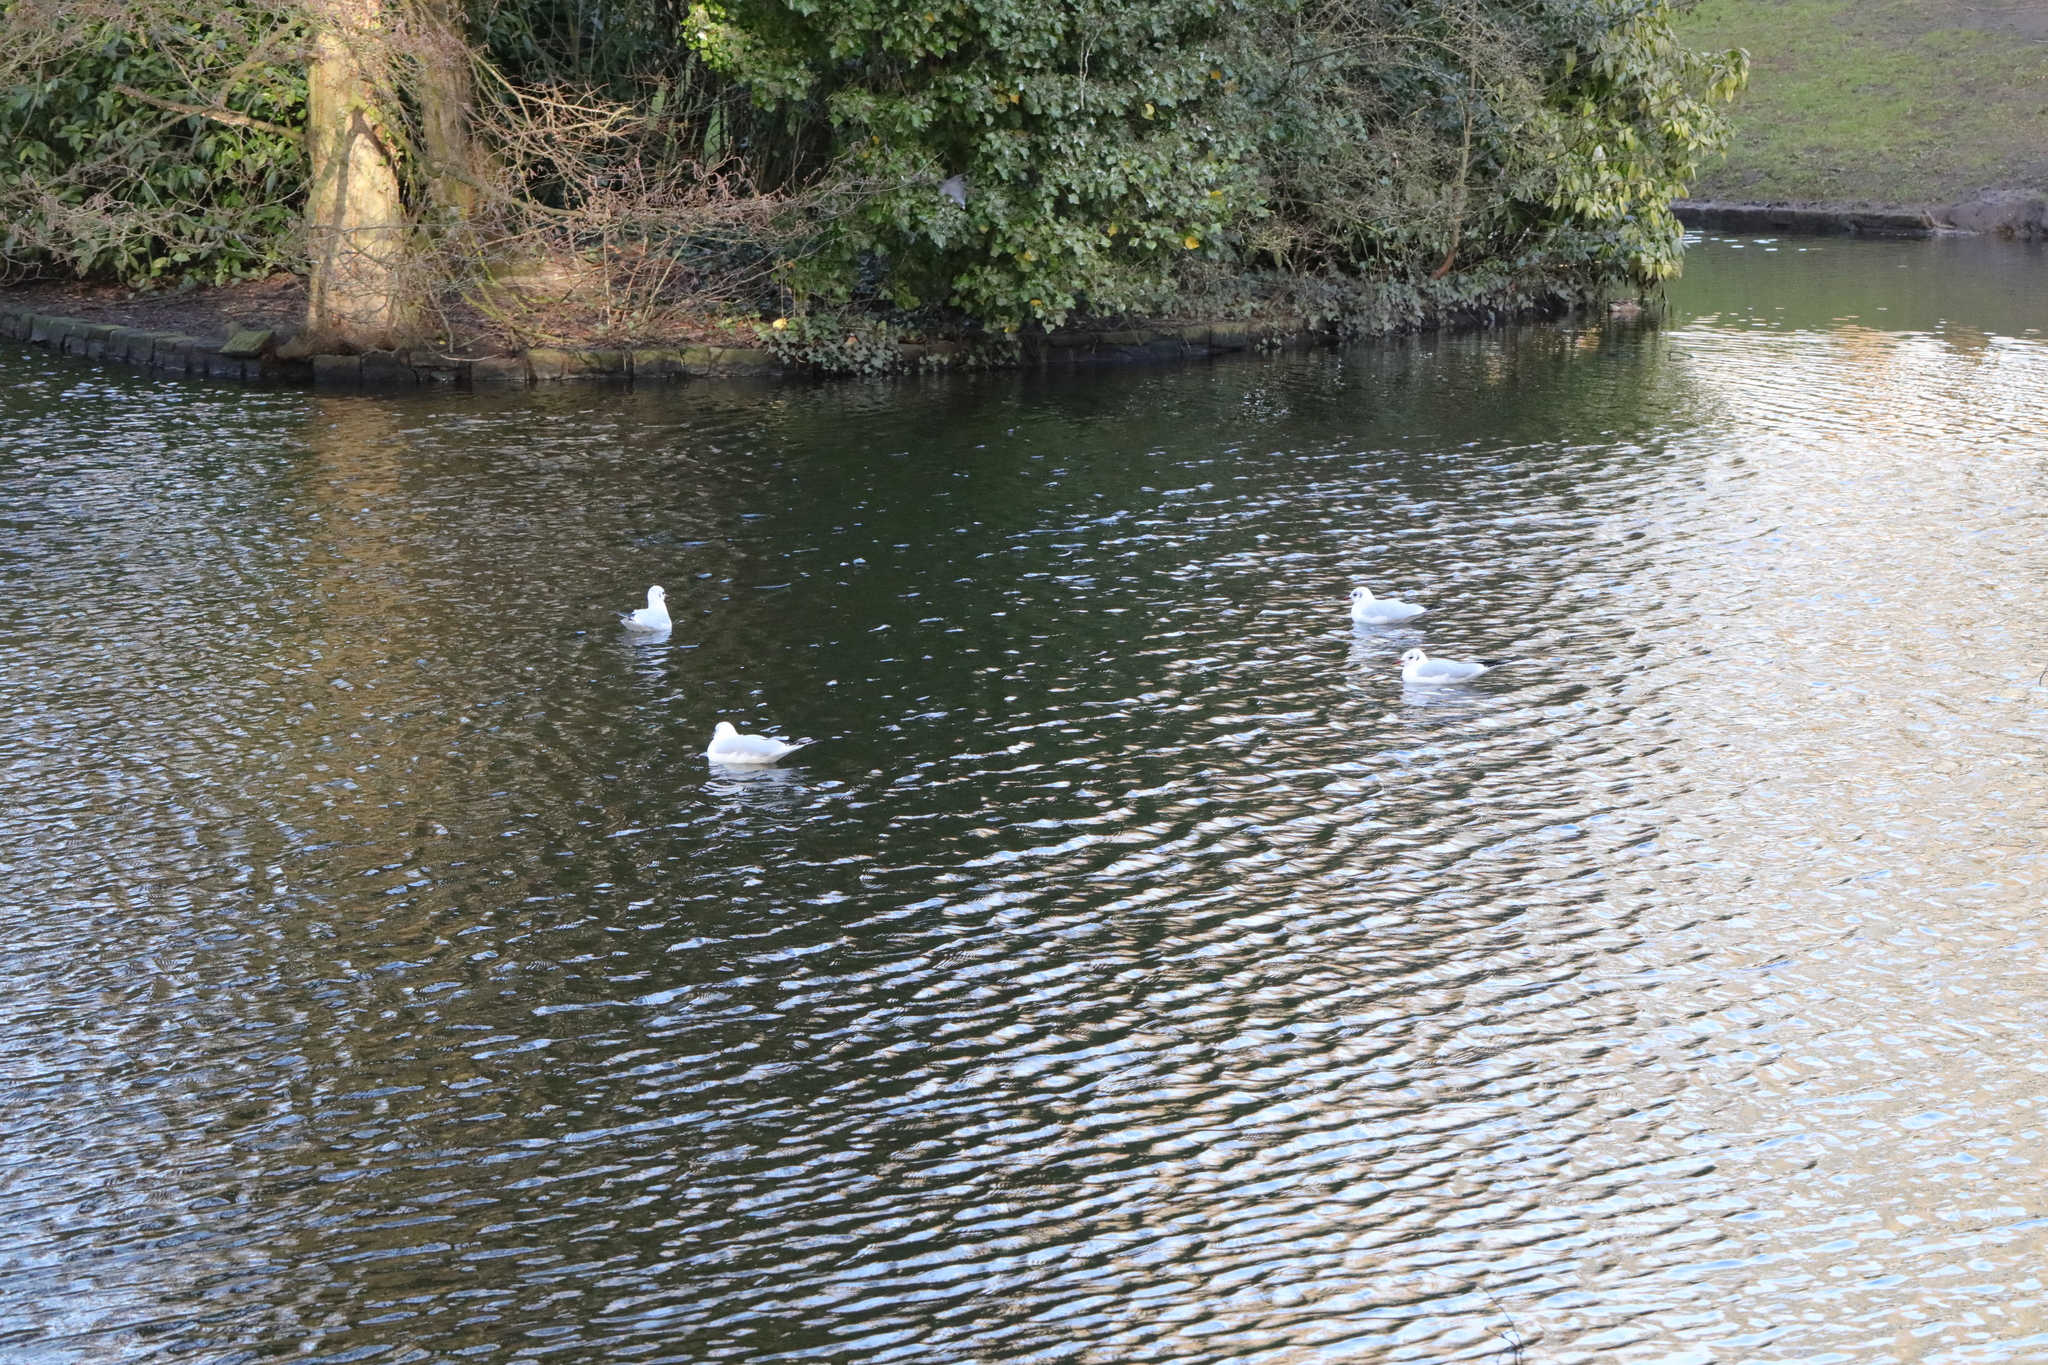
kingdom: Animalia
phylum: Chordata
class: Aves
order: Charadriiformes
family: Laridae
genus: Chroicocephalus
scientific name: Chroicocephalus ridibundus
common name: Black-headed gull
